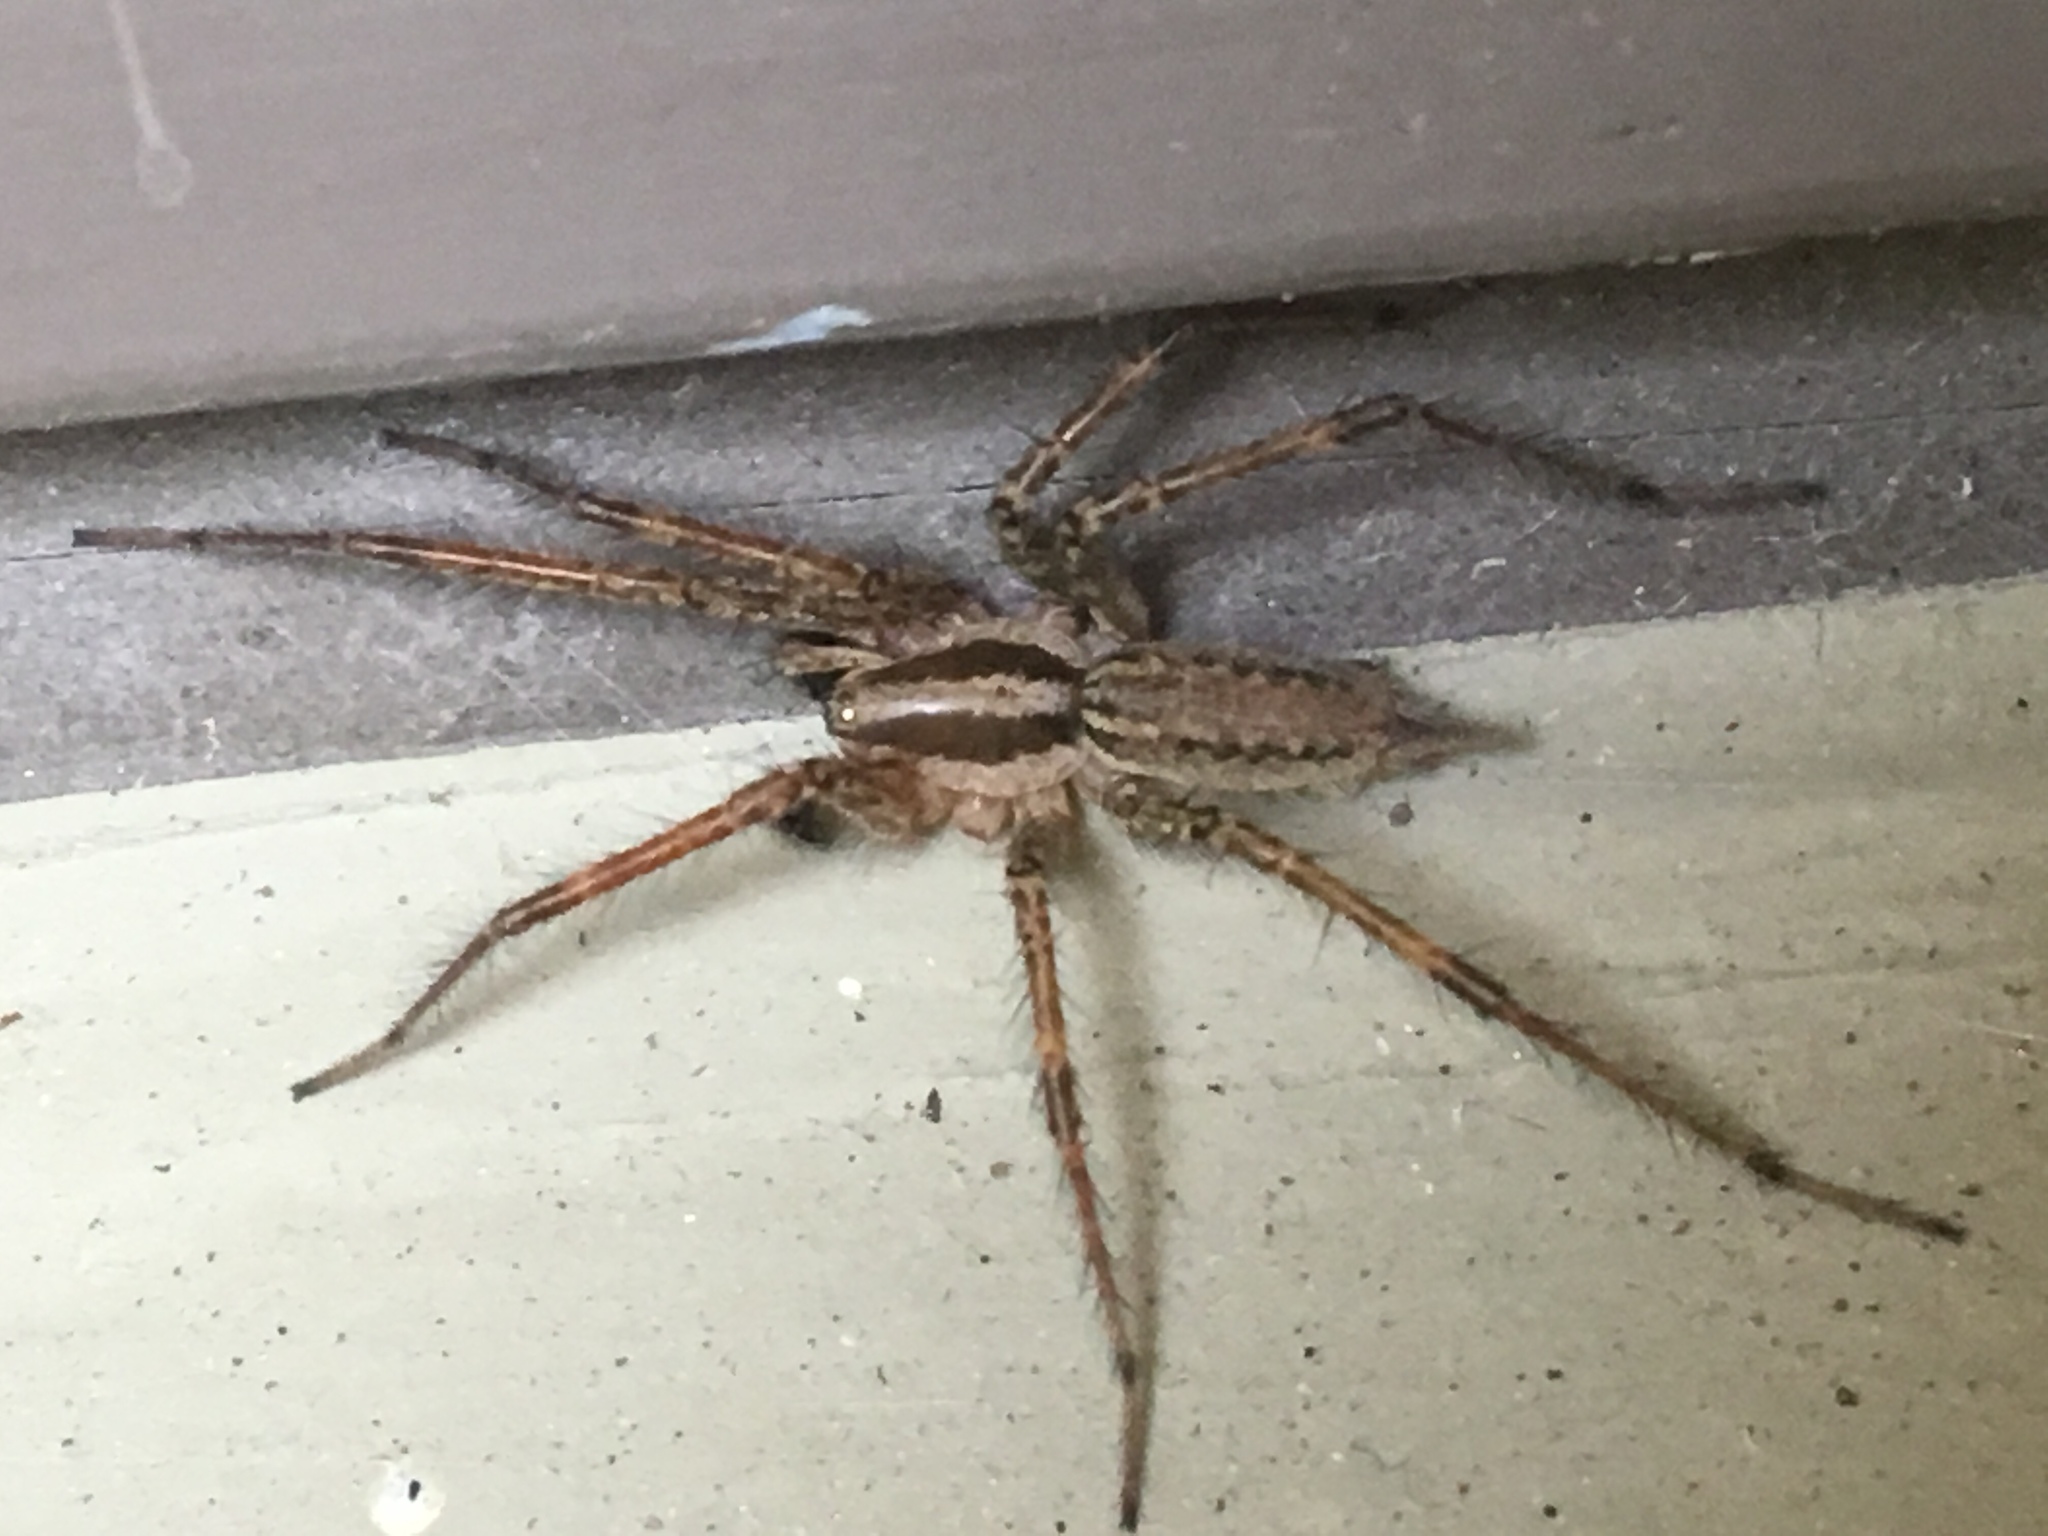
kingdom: Animalia
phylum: Arthropoda
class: Arachnida
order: Araneae
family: Agelenidae
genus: Agelenopsis
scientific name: Agelenopsis potteri
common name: Potter's grass spider
